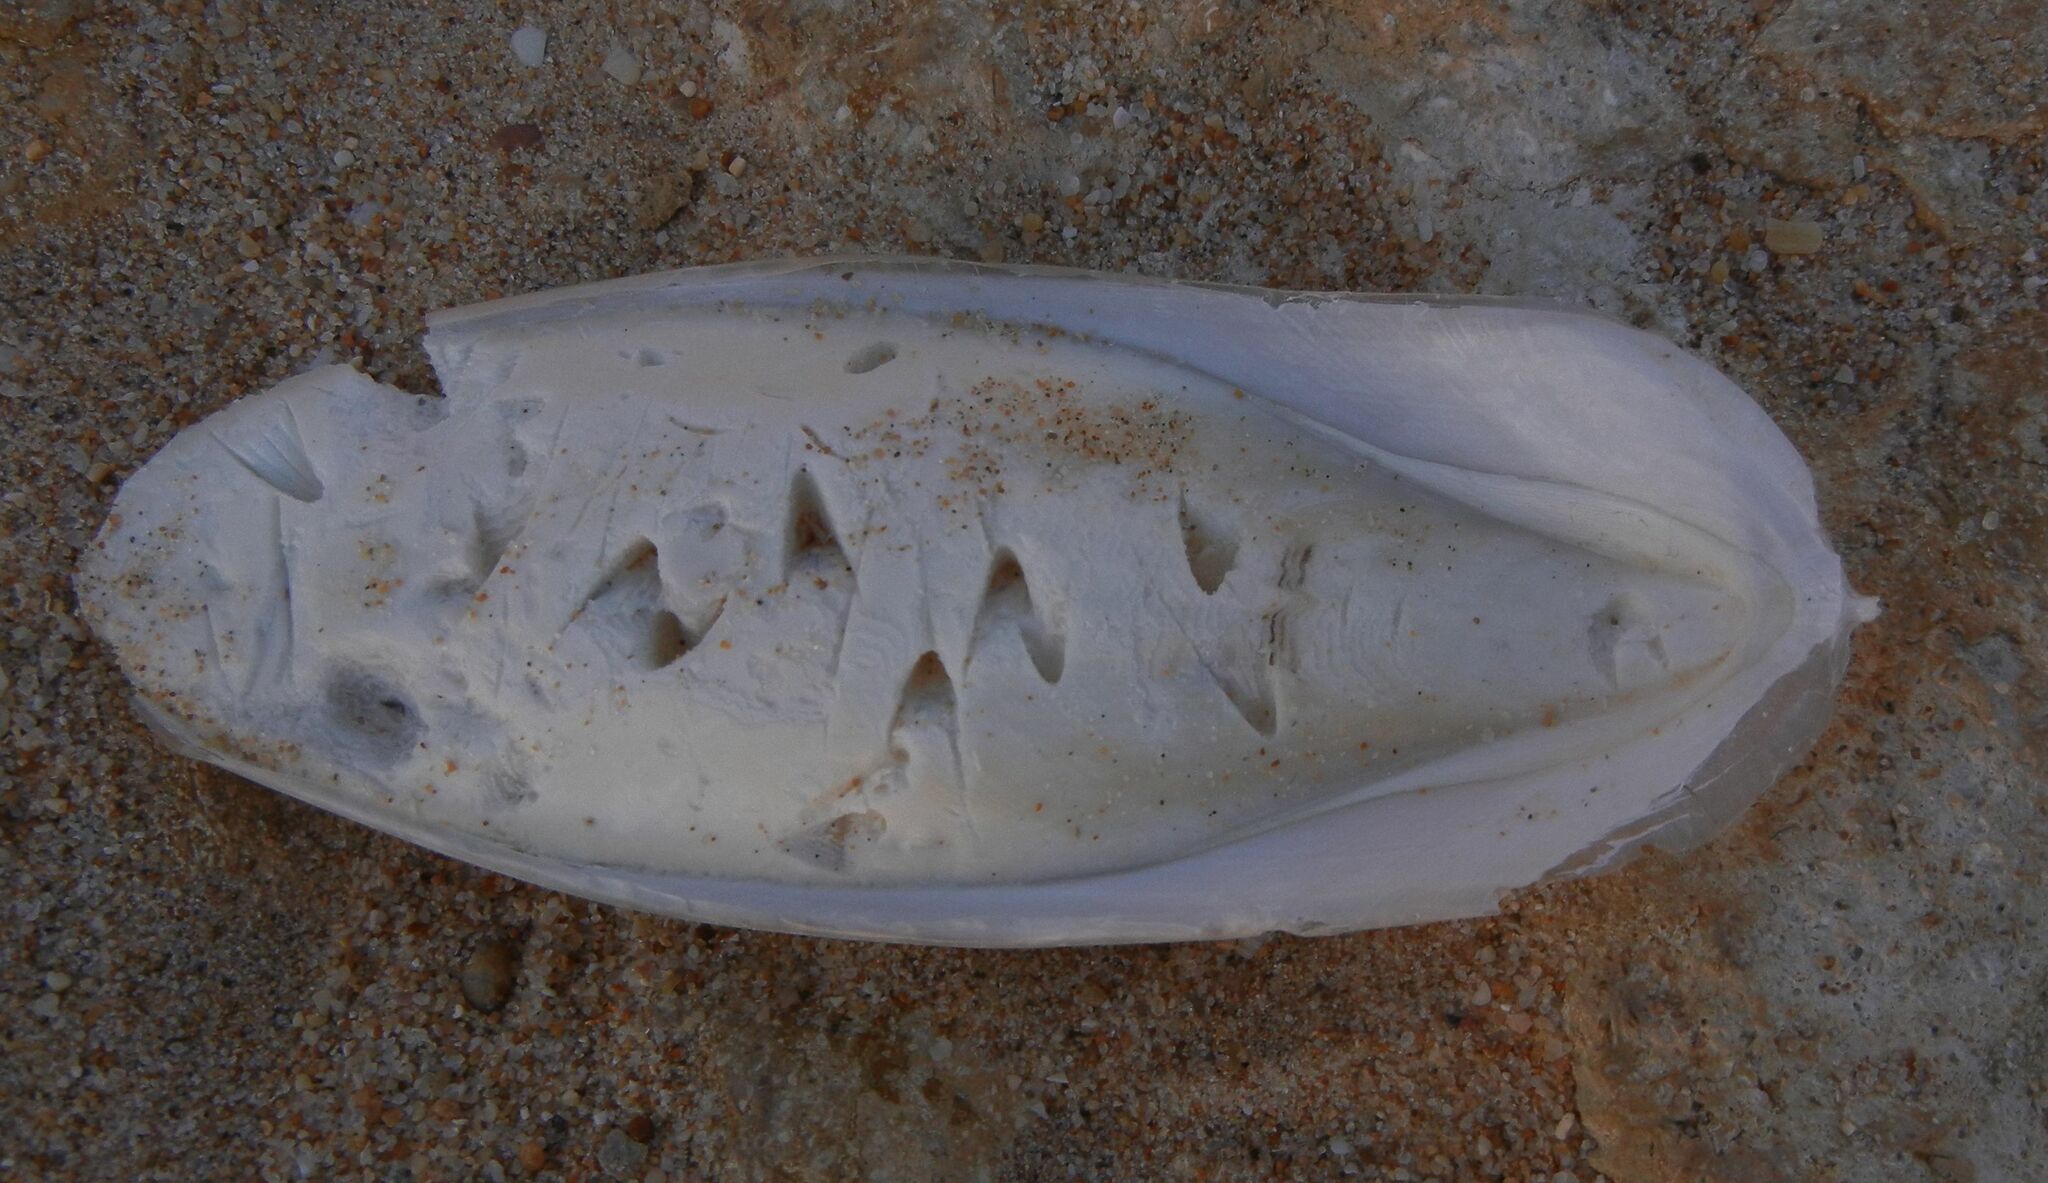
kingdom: Animalia
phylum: Mollusca
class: Cephalopoda
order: Sepiida
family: Sepiidae
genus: Sepia
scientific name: Sepia officinalis
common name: Common cuttlefish
